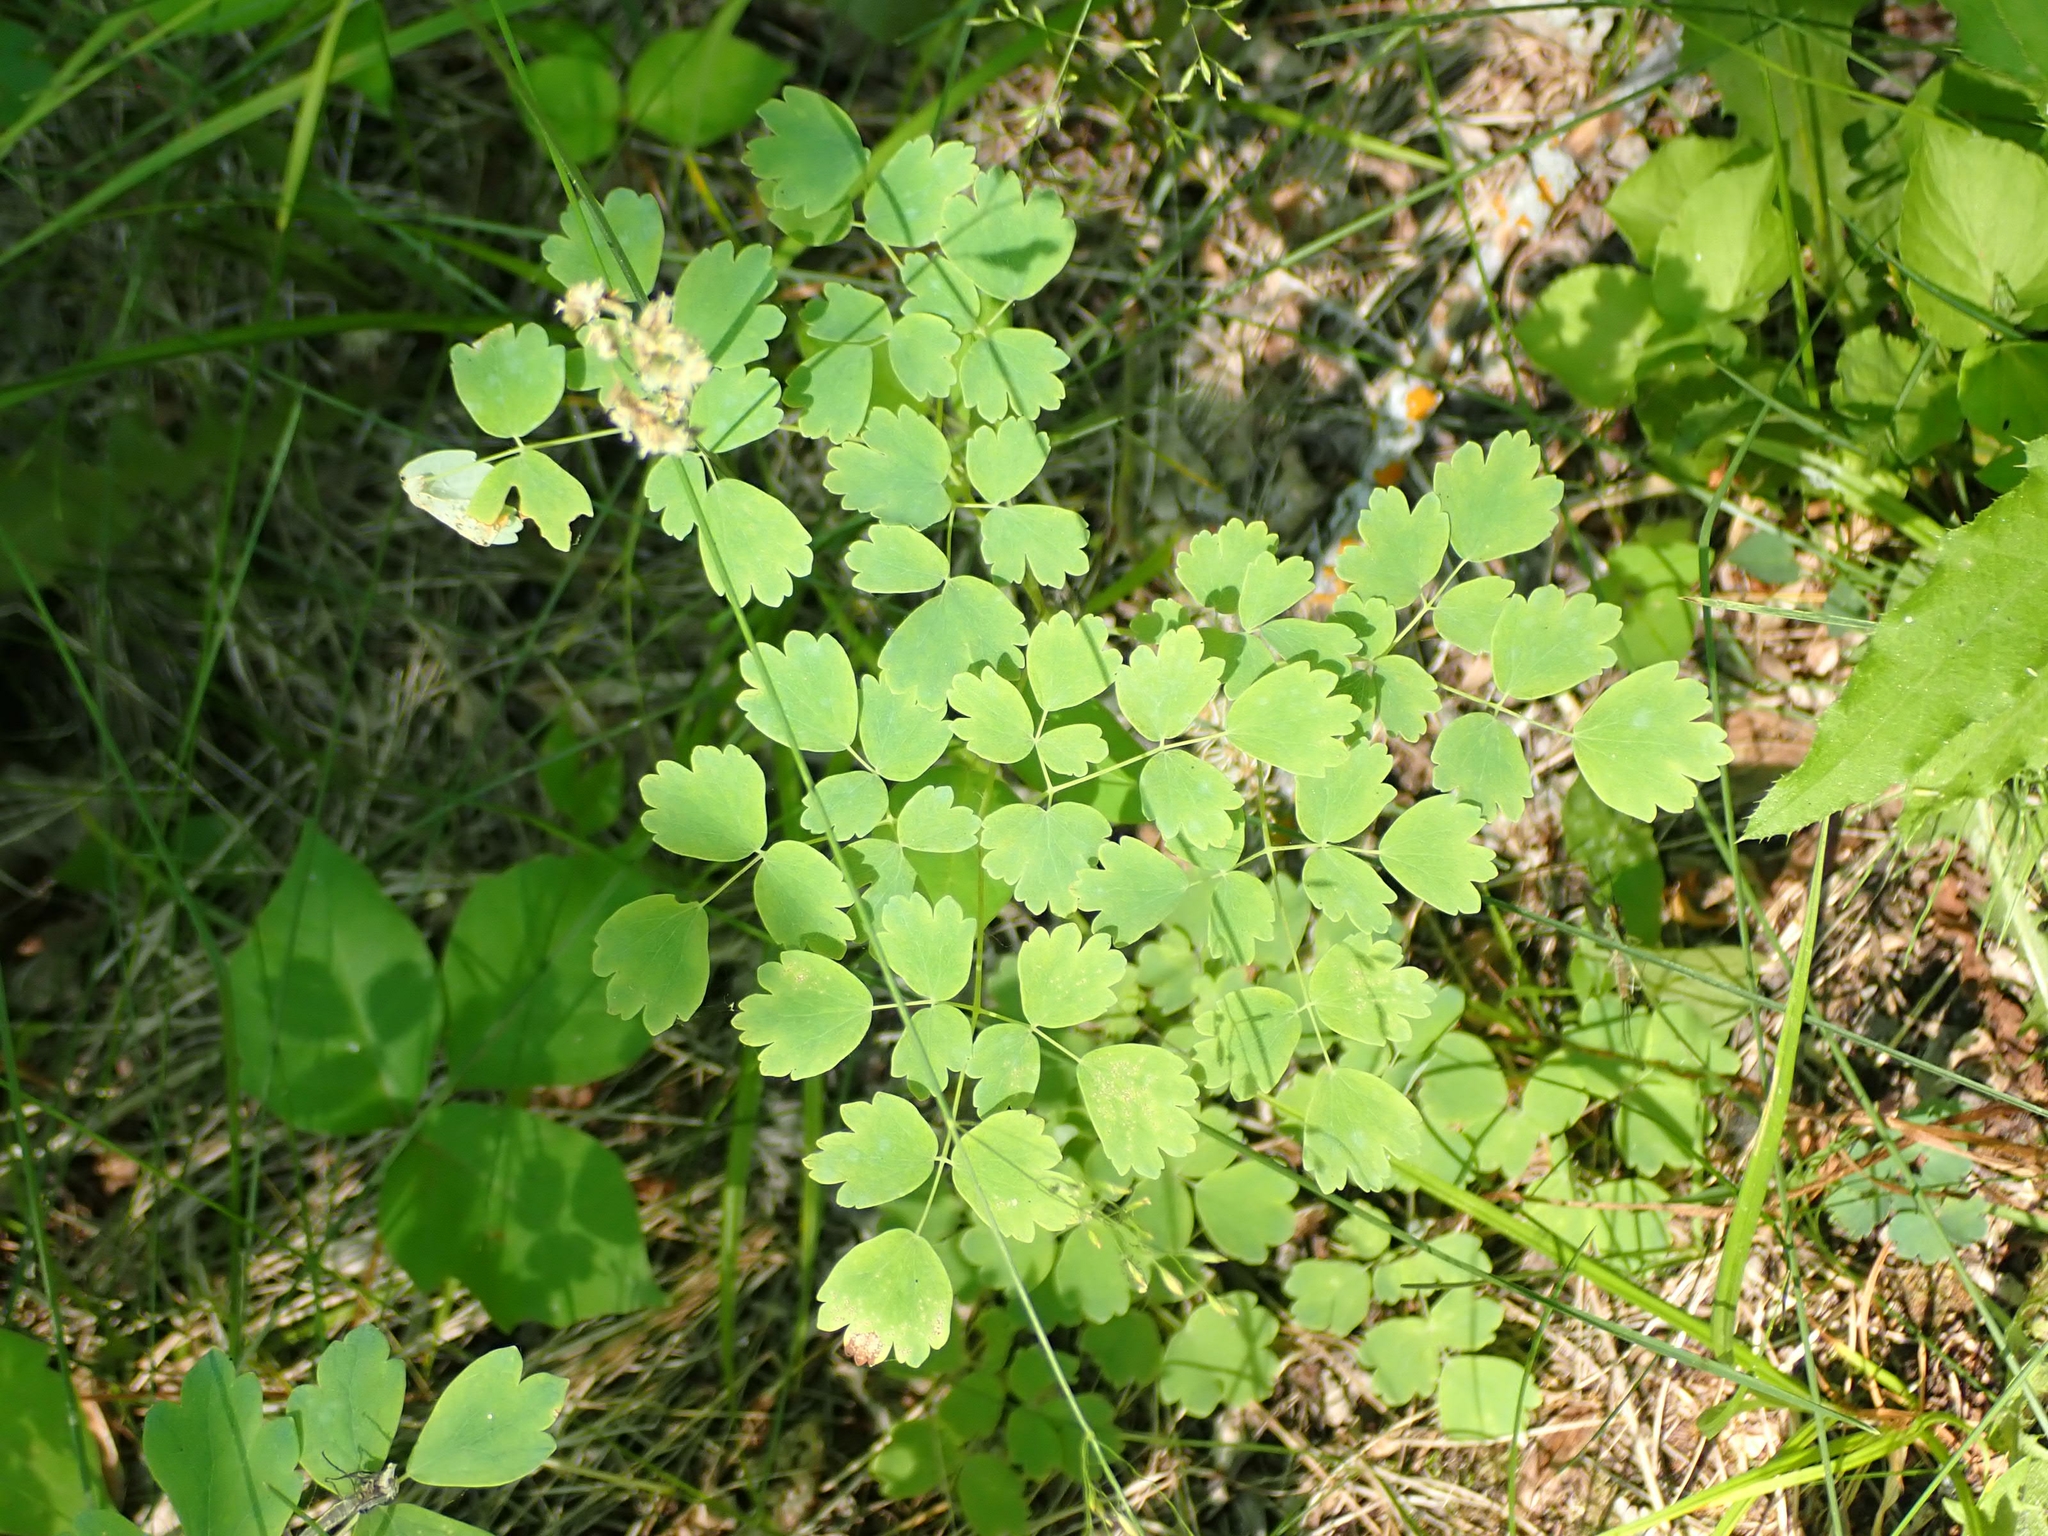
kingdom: Plantae
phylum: Tracheophyta
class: Magnoliopsida
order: Ranunculales
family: Ranunculaceae
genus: Thalictrum
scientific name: Thalictrum venulosum
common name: Early meadow-rue
